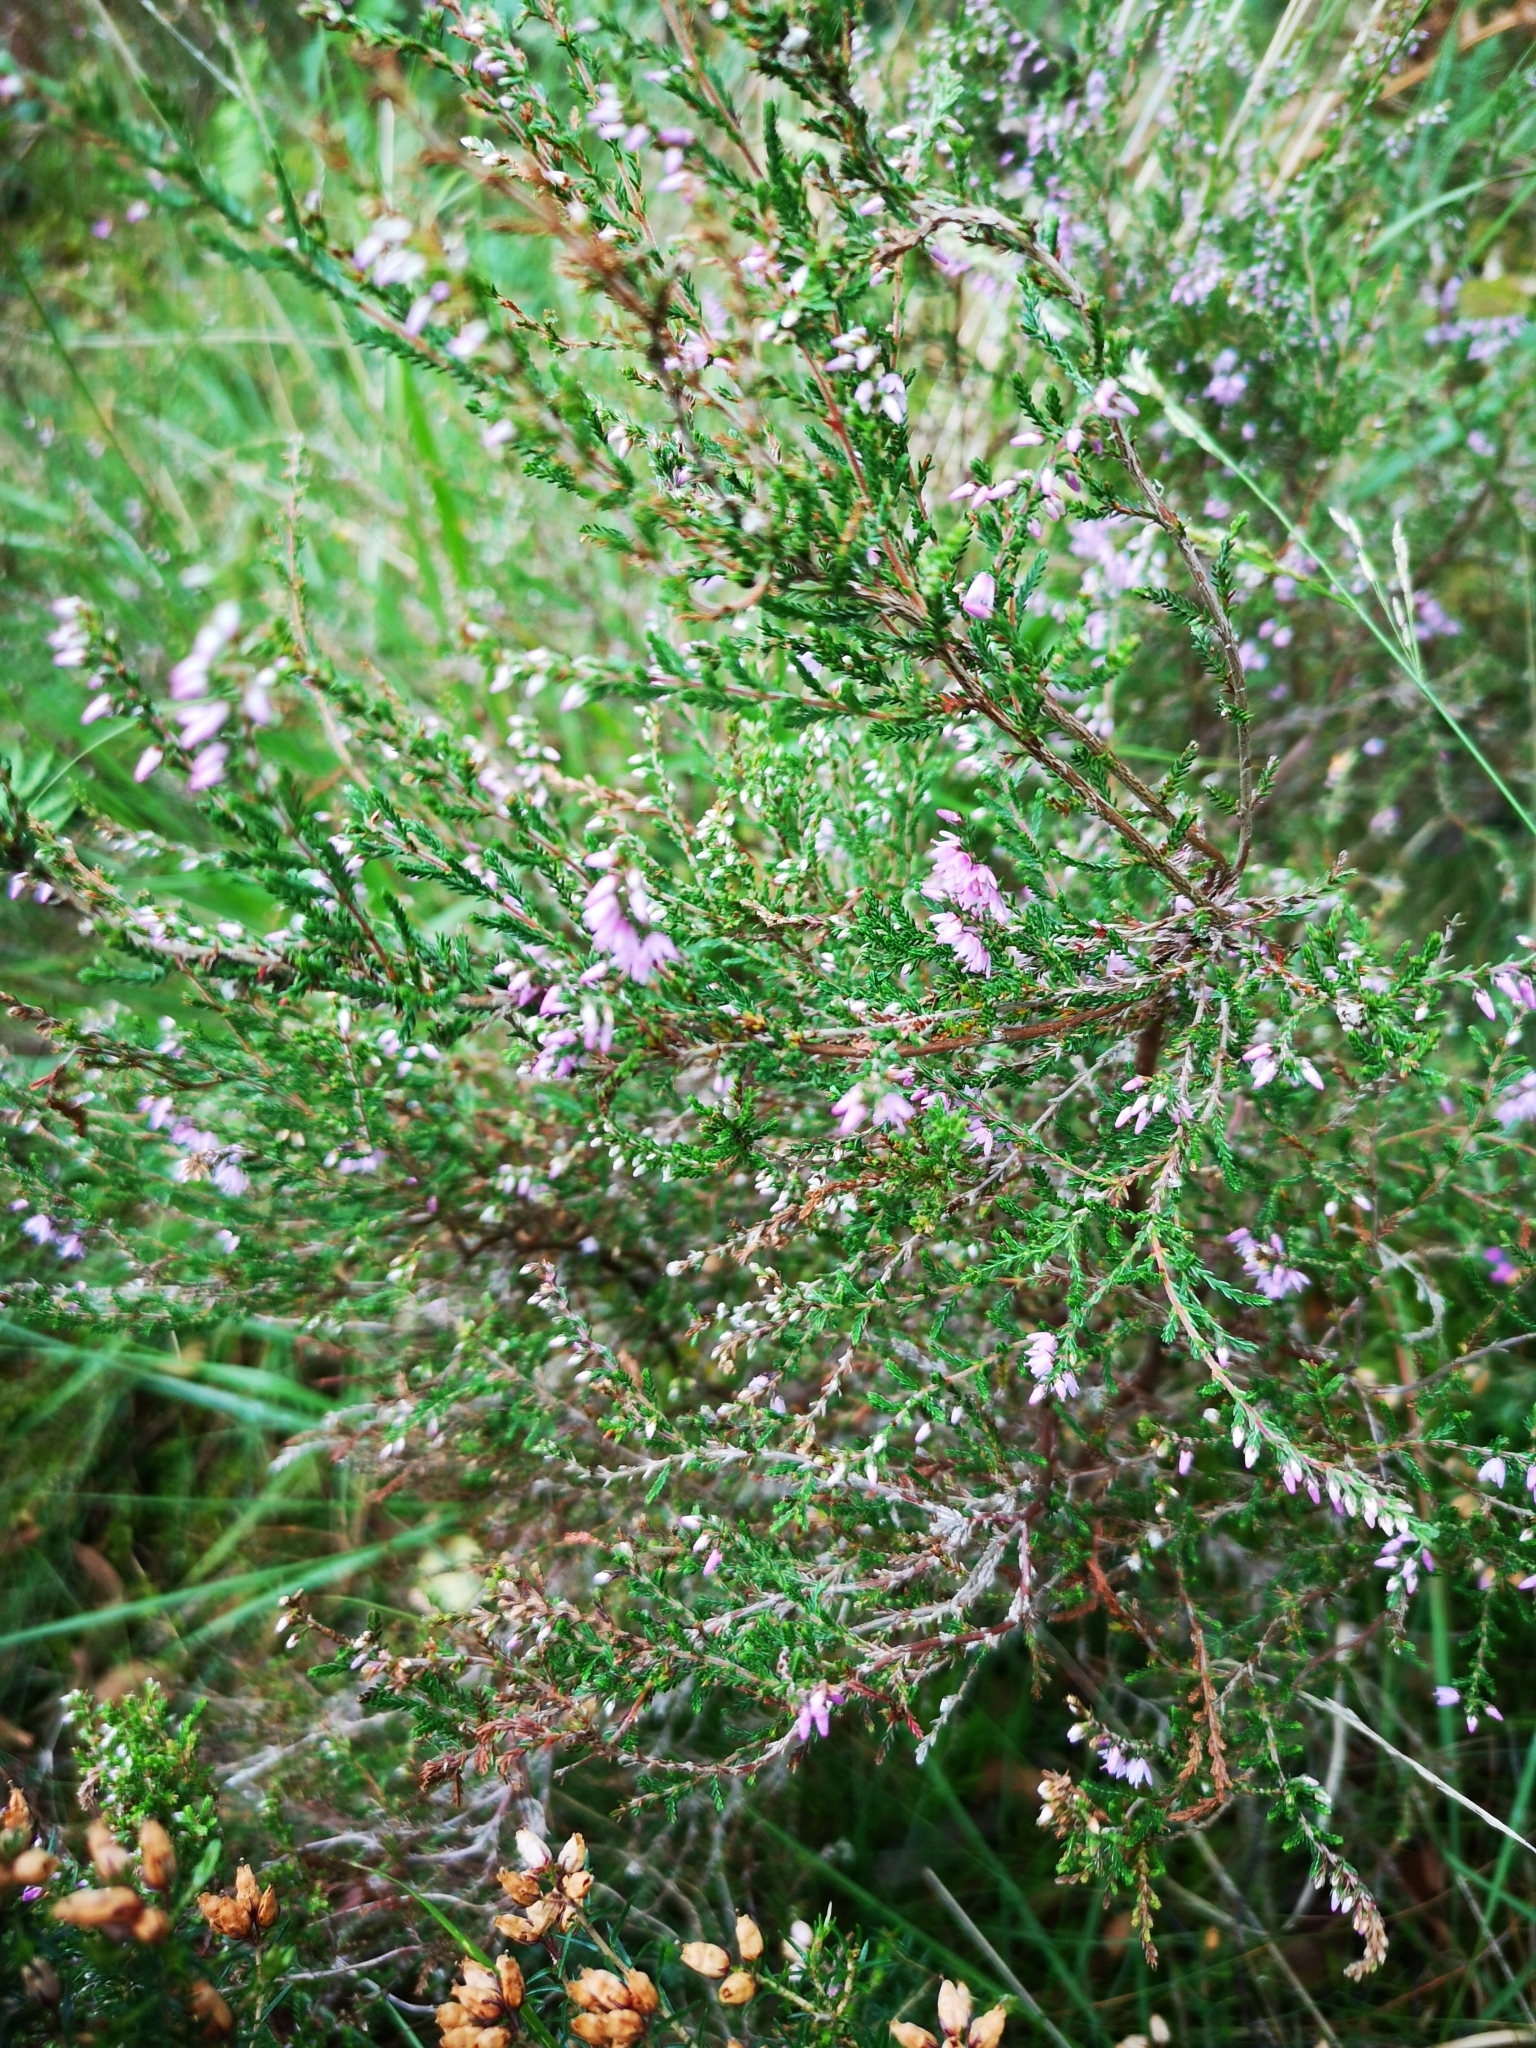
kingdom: Plantae
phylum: Tracheophyta
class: Magnoliopsida
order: Ericales
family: Ericaceae
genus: Calluna
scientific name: Calluna vulgaris
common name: Heather
